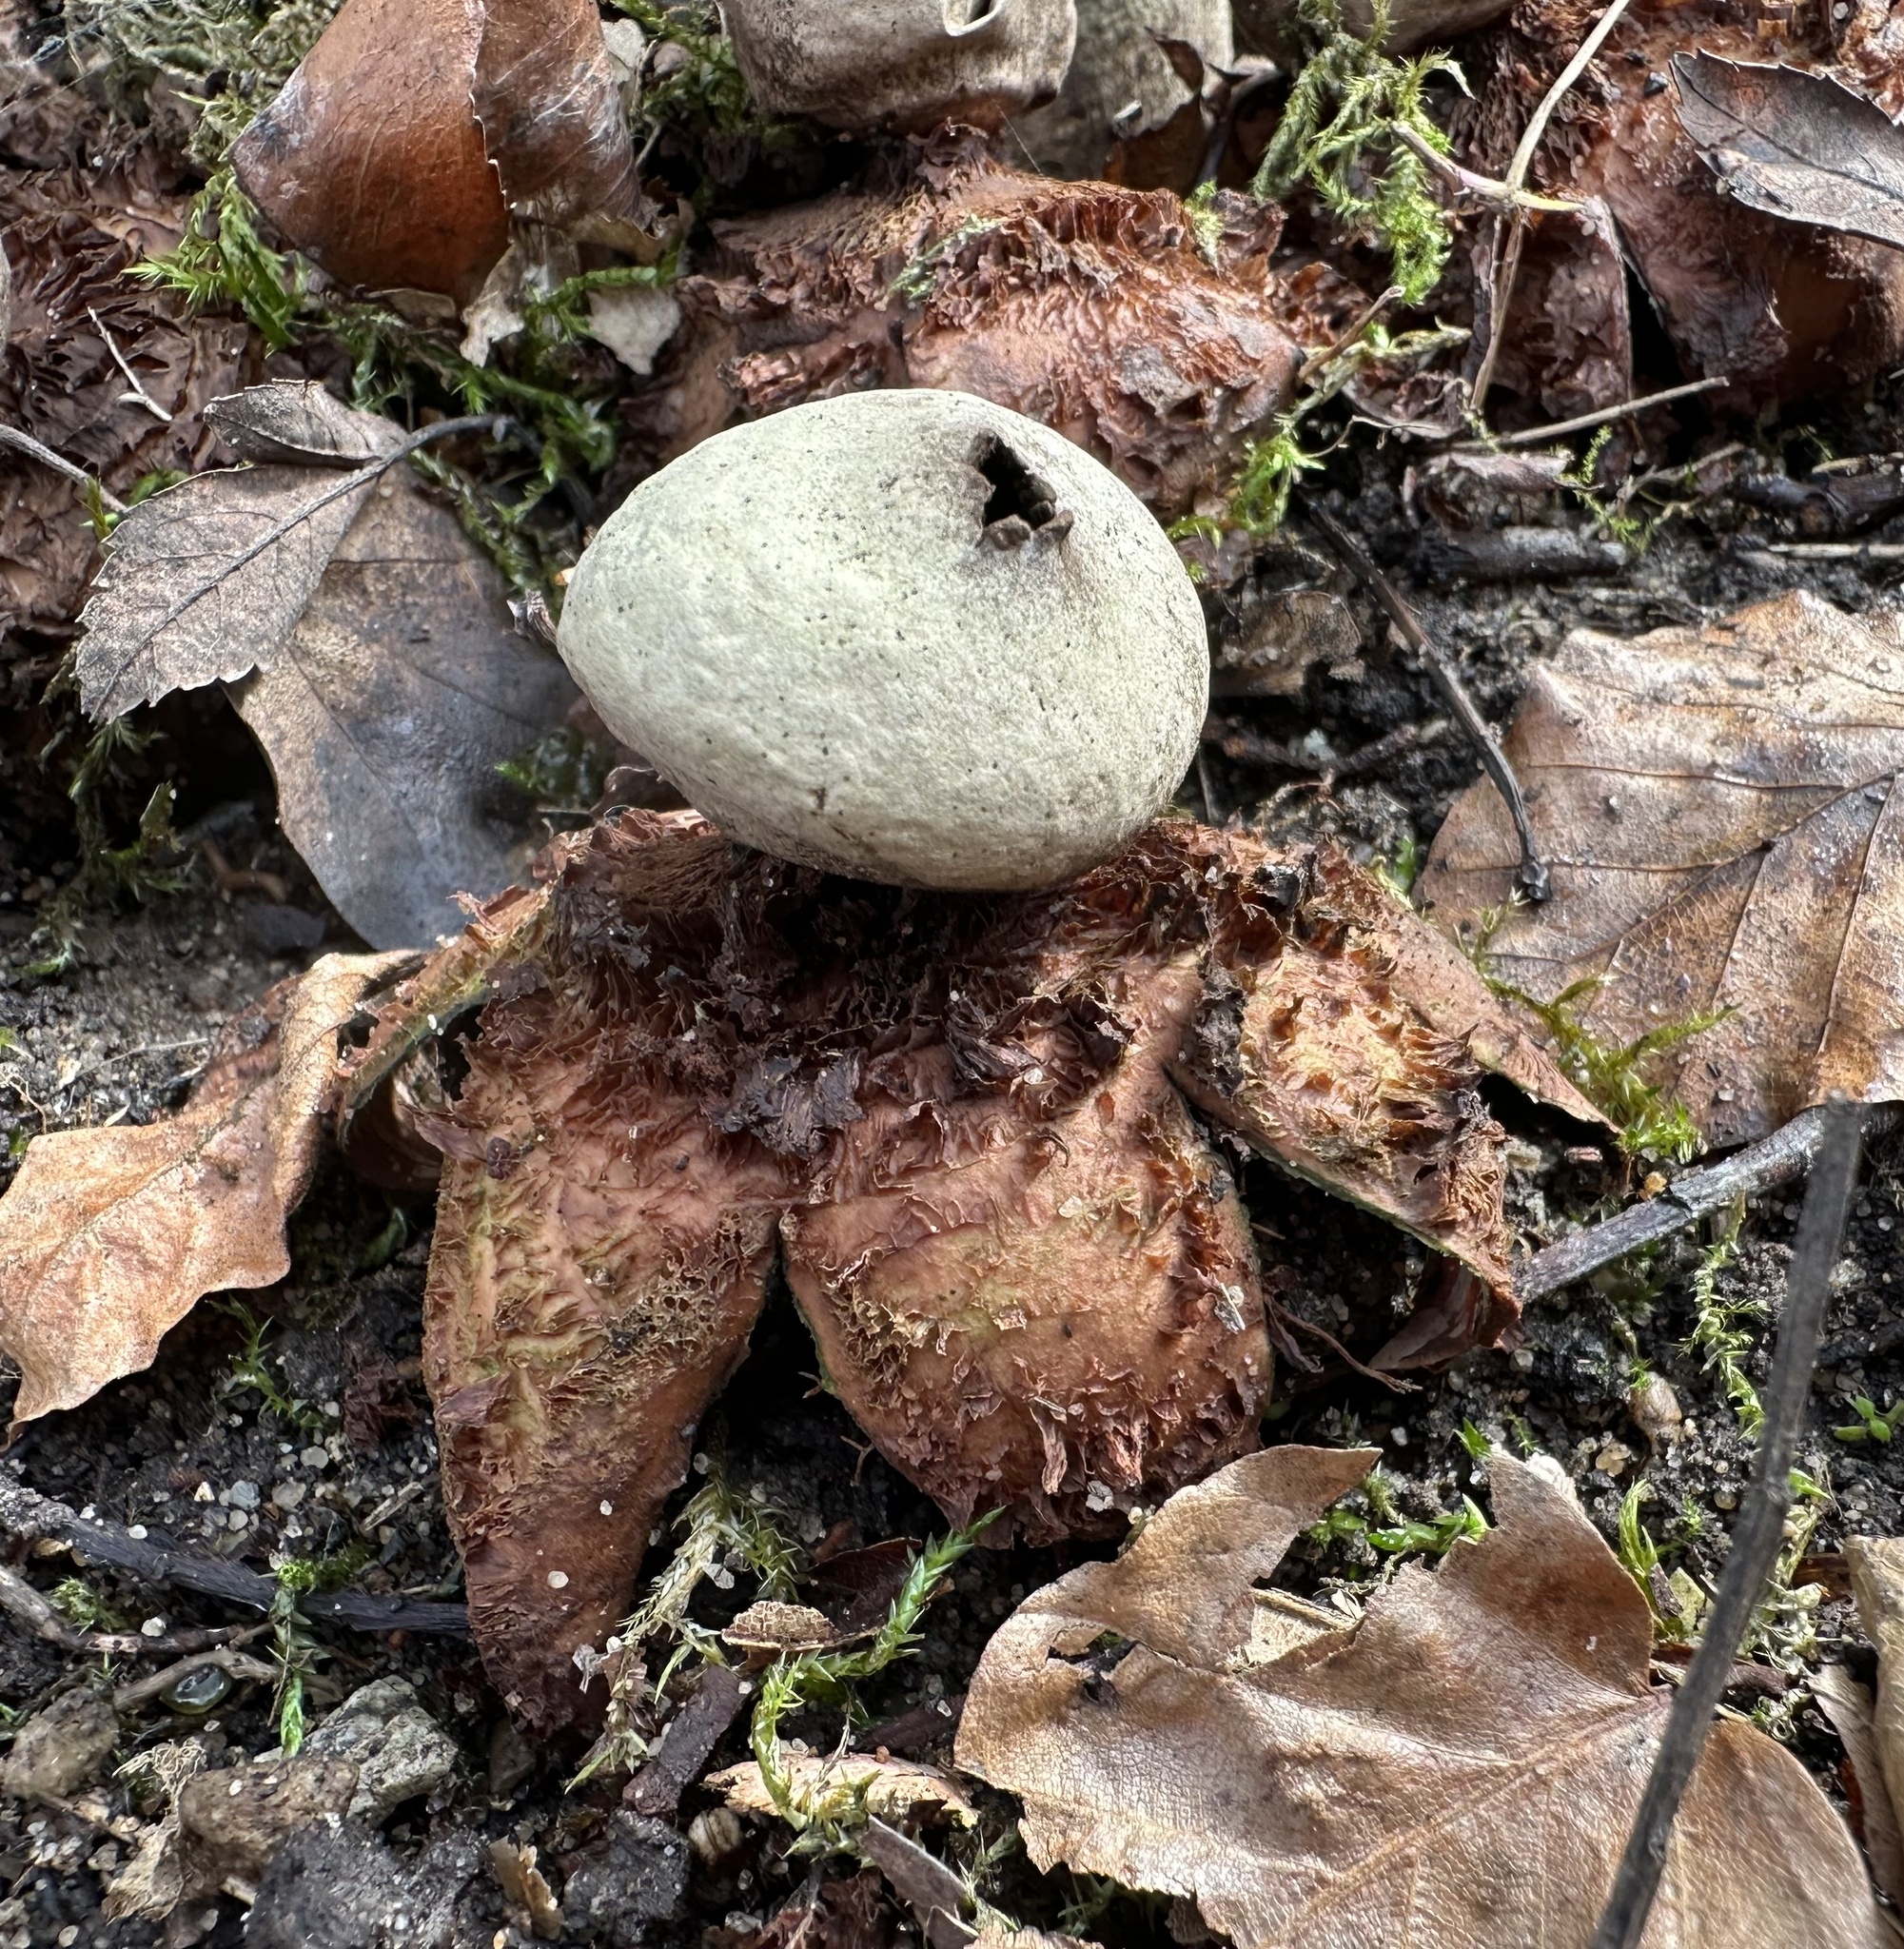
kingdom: Fungi
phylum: Basidiomycota
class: Agaricomycetes
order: Geastrales
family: Geastraceae
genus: Geastrum
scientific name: Geastrum rufescens
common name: Rosy earthstar
